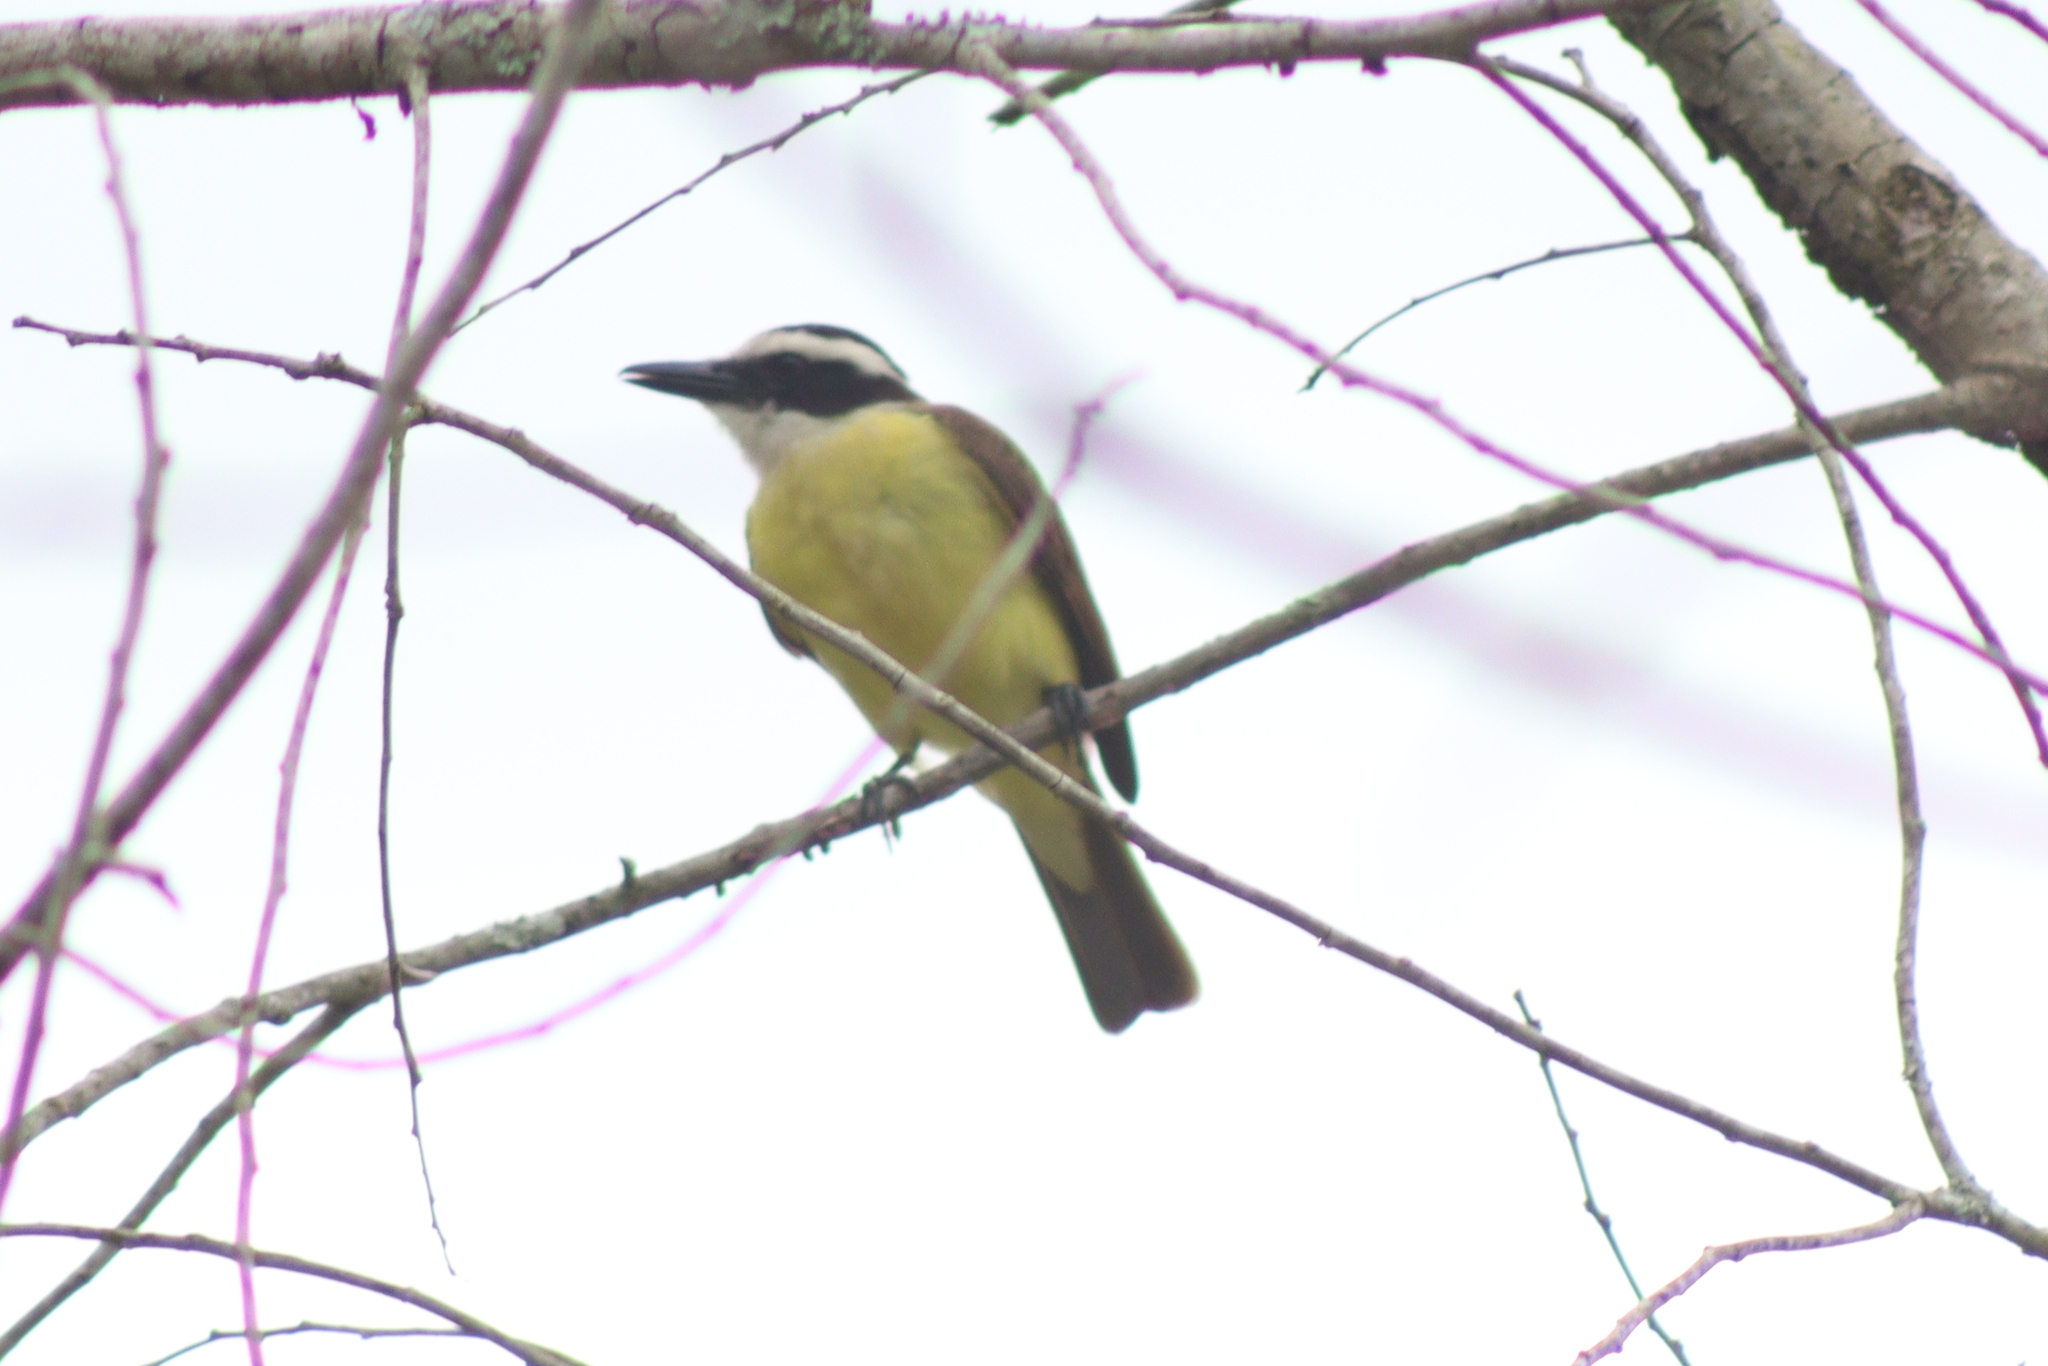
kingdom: Animalia
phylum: Chordata
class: Aves
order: Passeriformes
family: Tyrannidae
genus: Pitangus
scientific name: Pitangus sulphuratus
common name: Great kiskadee
